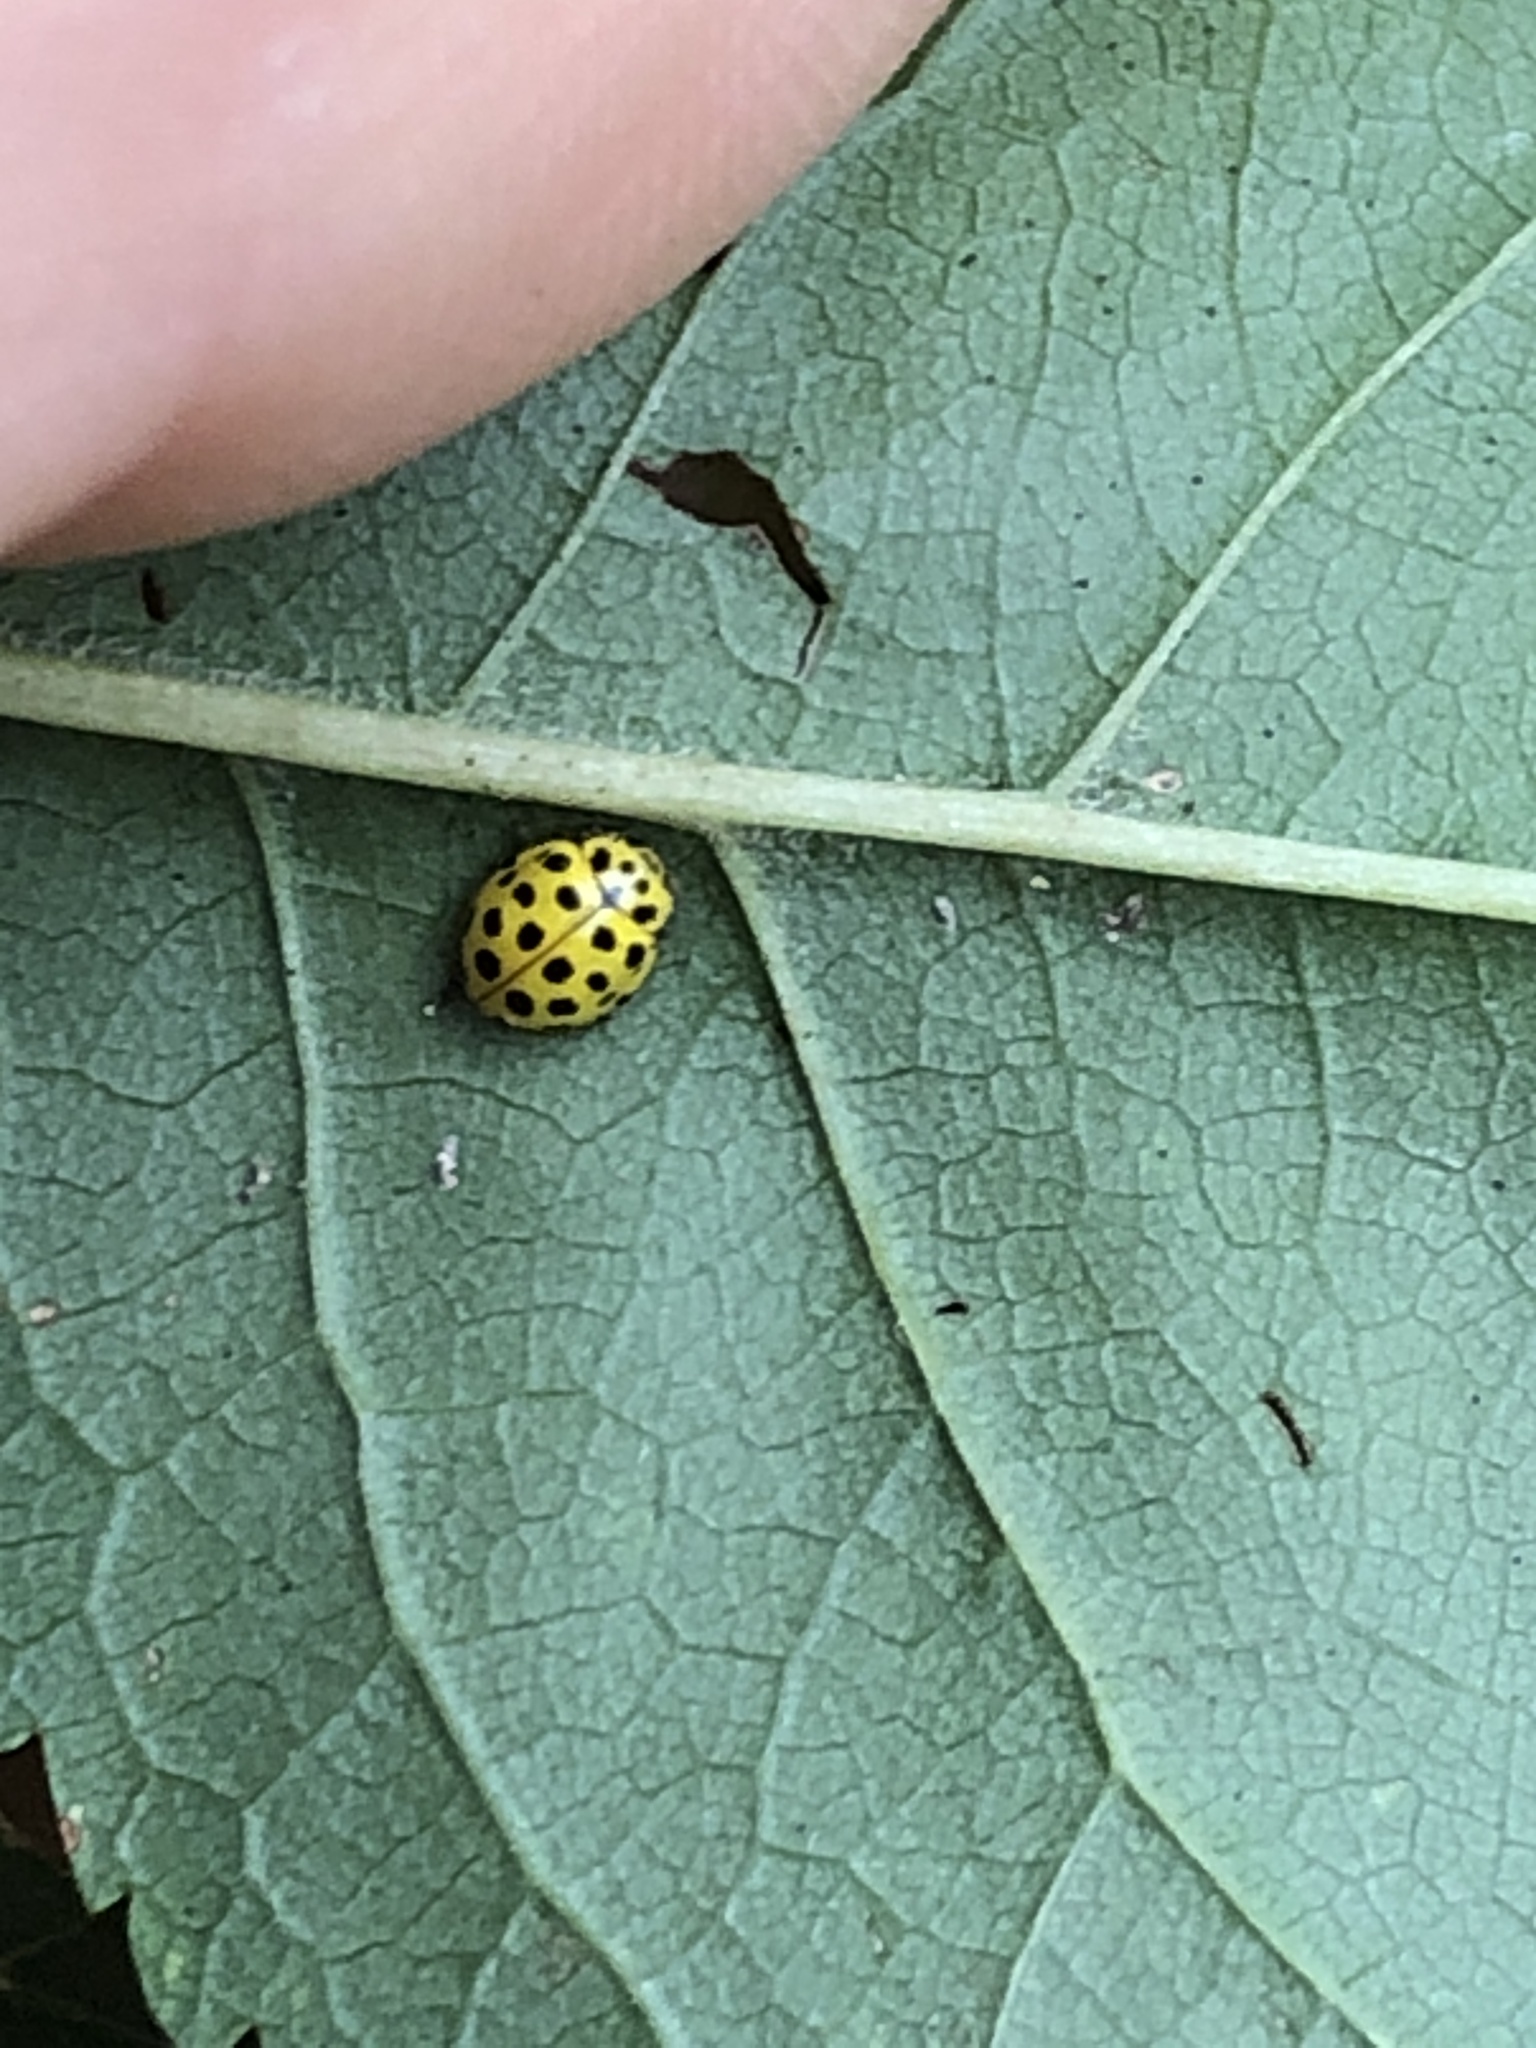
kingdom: Animalia
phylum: Arthropoda
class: Insecta
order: Coleoptera
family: Coccinellidae
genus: Psyllobora
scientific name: Psyllobora vigintiduopunctata
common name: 22-spot ladybird
